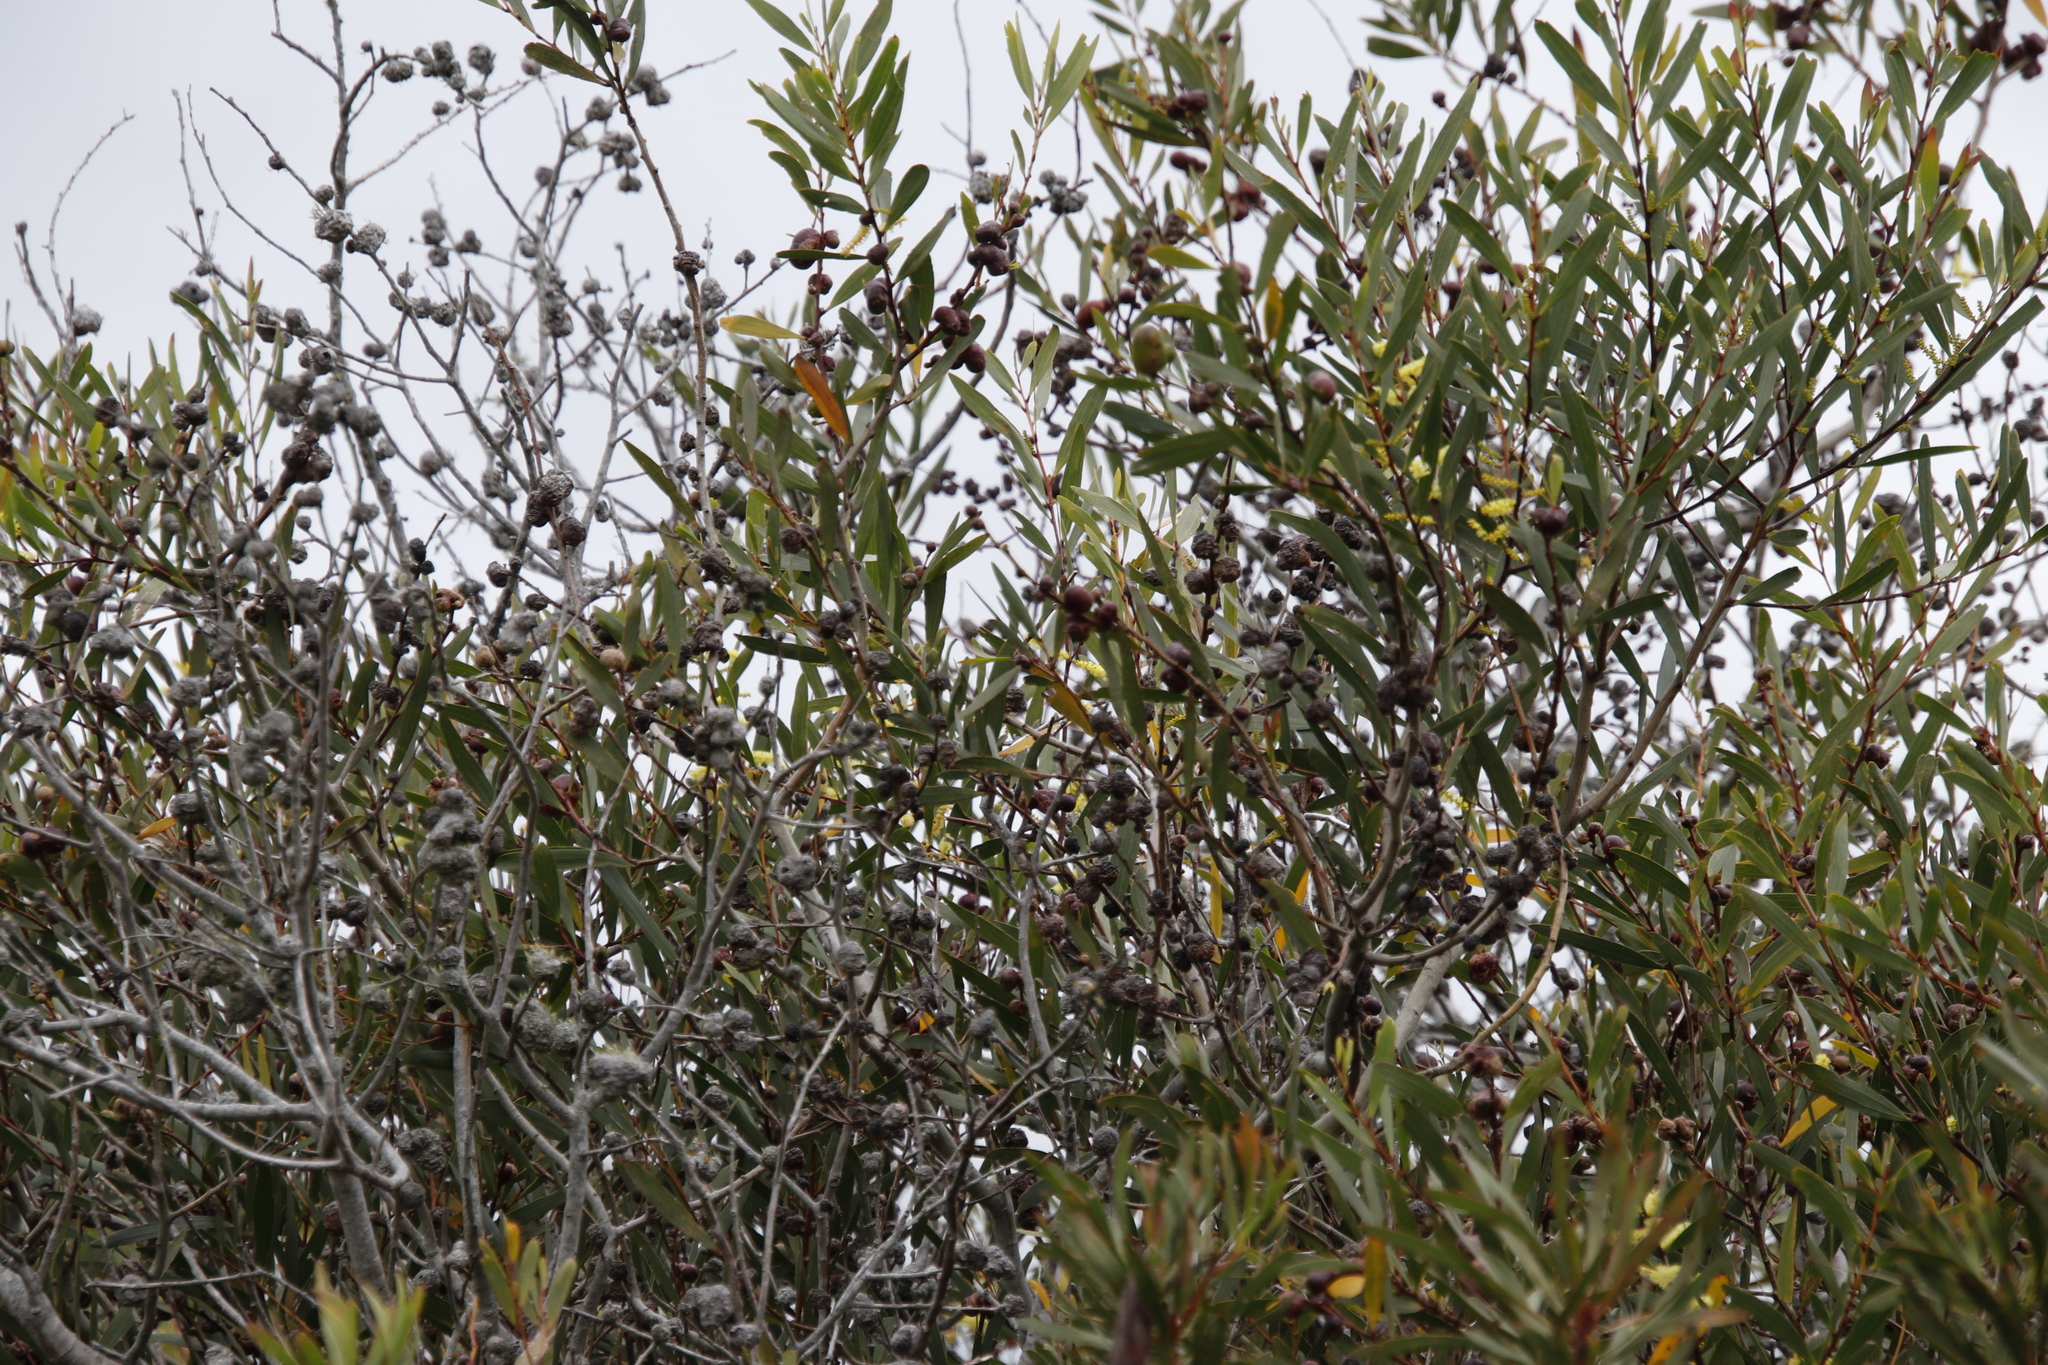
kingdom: Plantae
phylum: Tracheophyta
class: Magnoliopsida
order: Fabales
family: Fabaceae
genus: Acacia
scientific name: Acacia longifolia
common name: Sydney golden wattle
